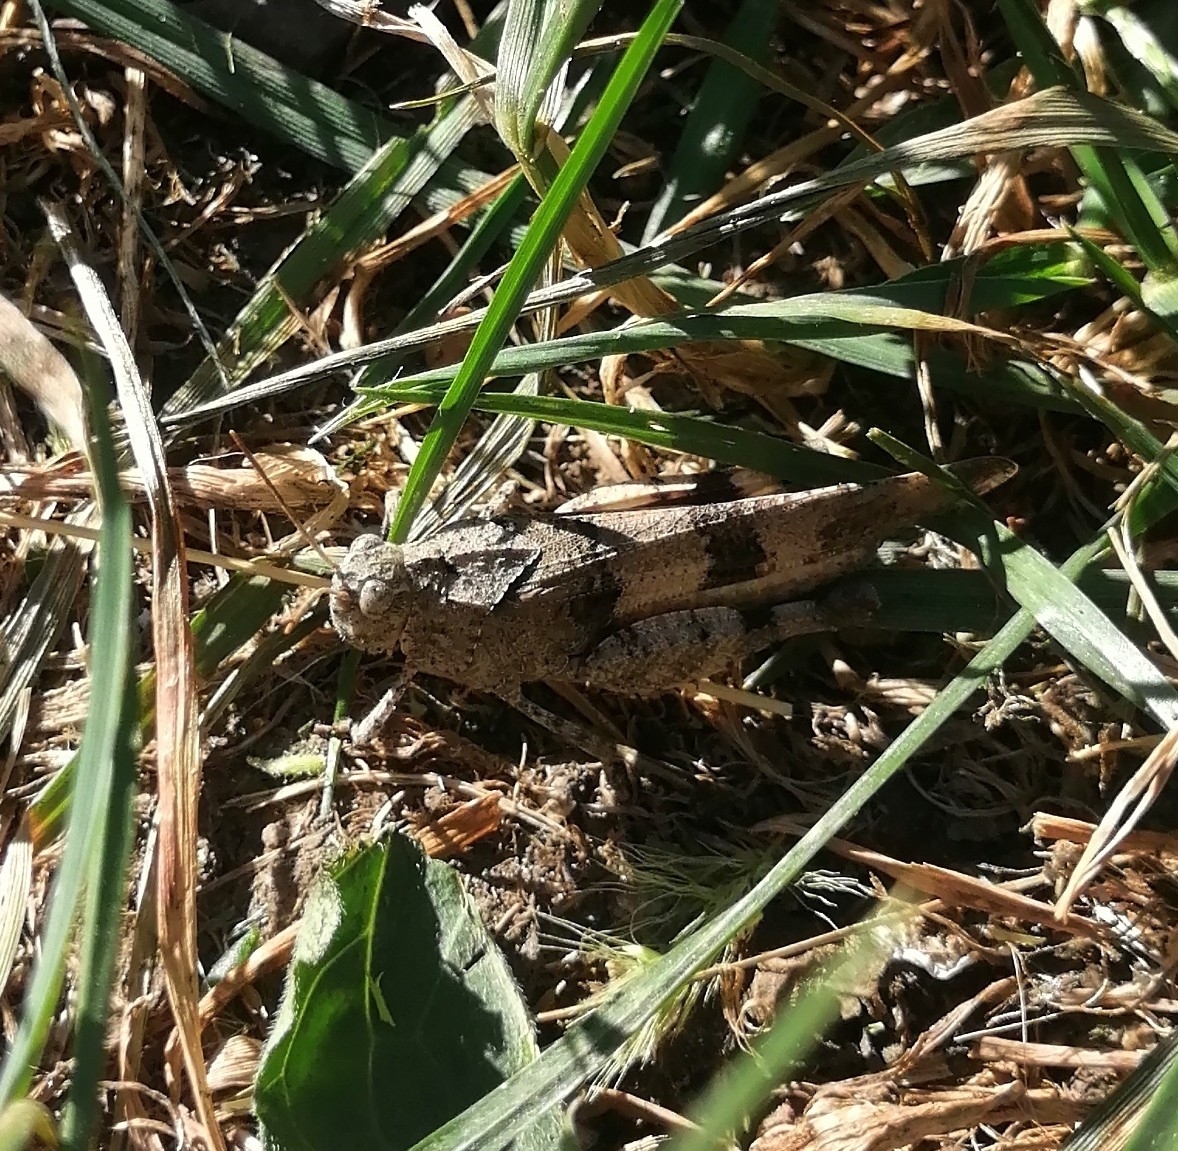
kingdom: Animalia
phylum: Arthropoda
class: Insecta
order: Orthoptera
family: Acrididae
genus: Oedipoda
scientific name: Oedipoda caerulescens
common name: Blue-winged grasshopper
